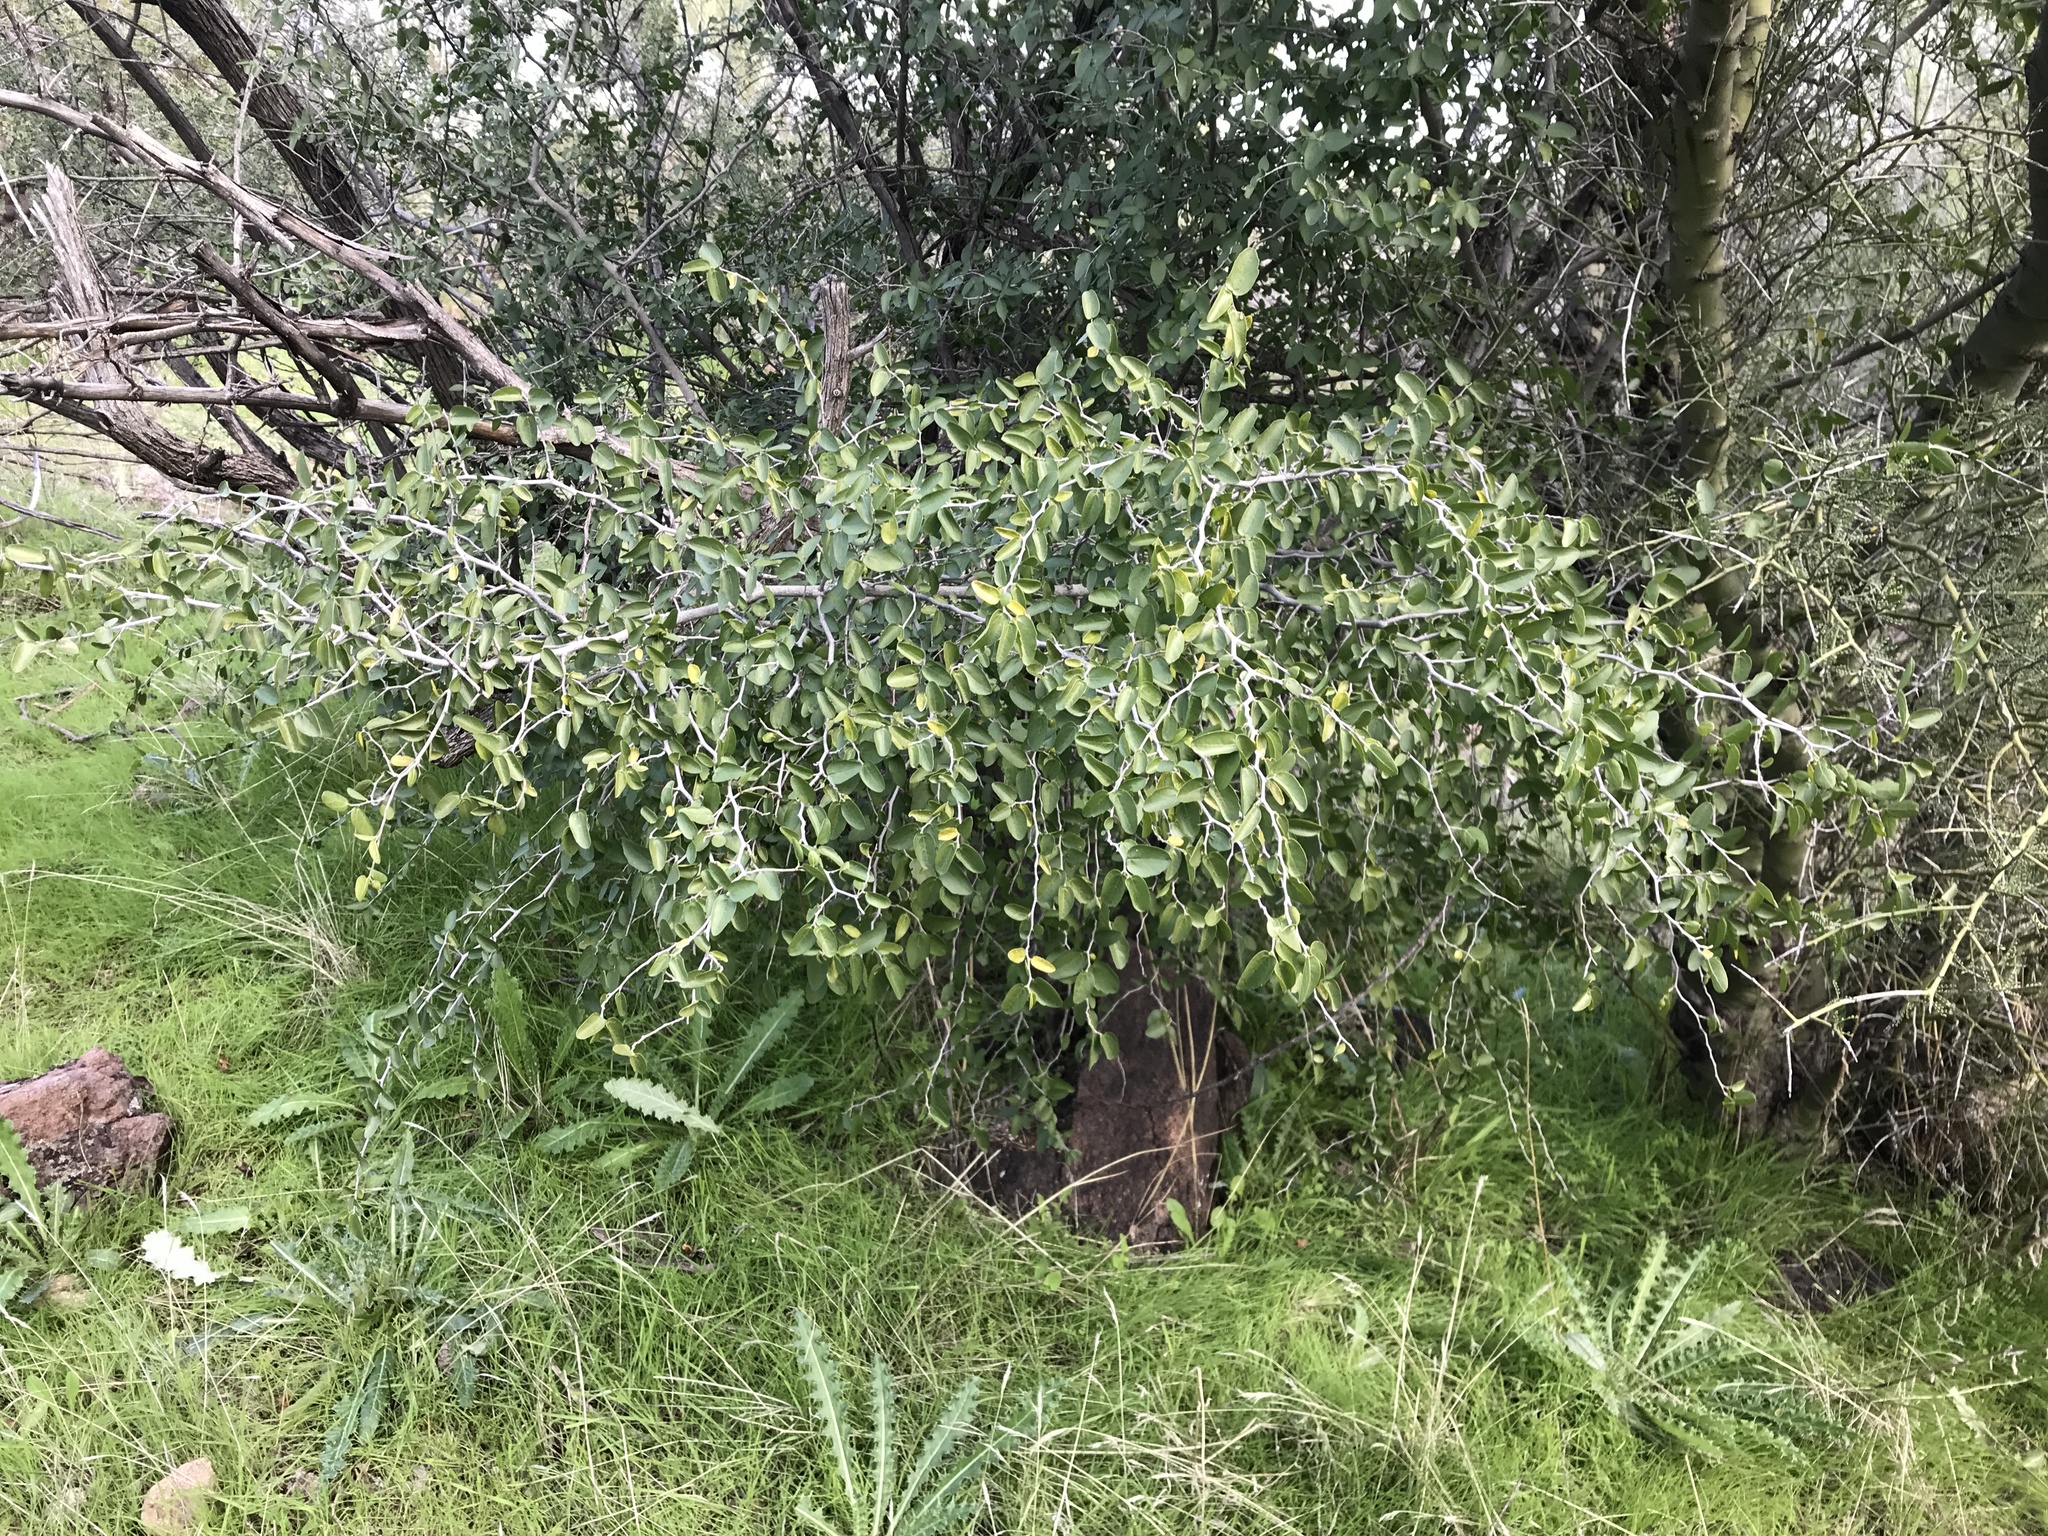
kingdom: Plantae
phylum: Tracheophyta
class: Magnoliopsida
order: Rosales
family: Cannabaceae
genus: Celtis
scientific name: Celtis pallida
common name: Desert hackberry
